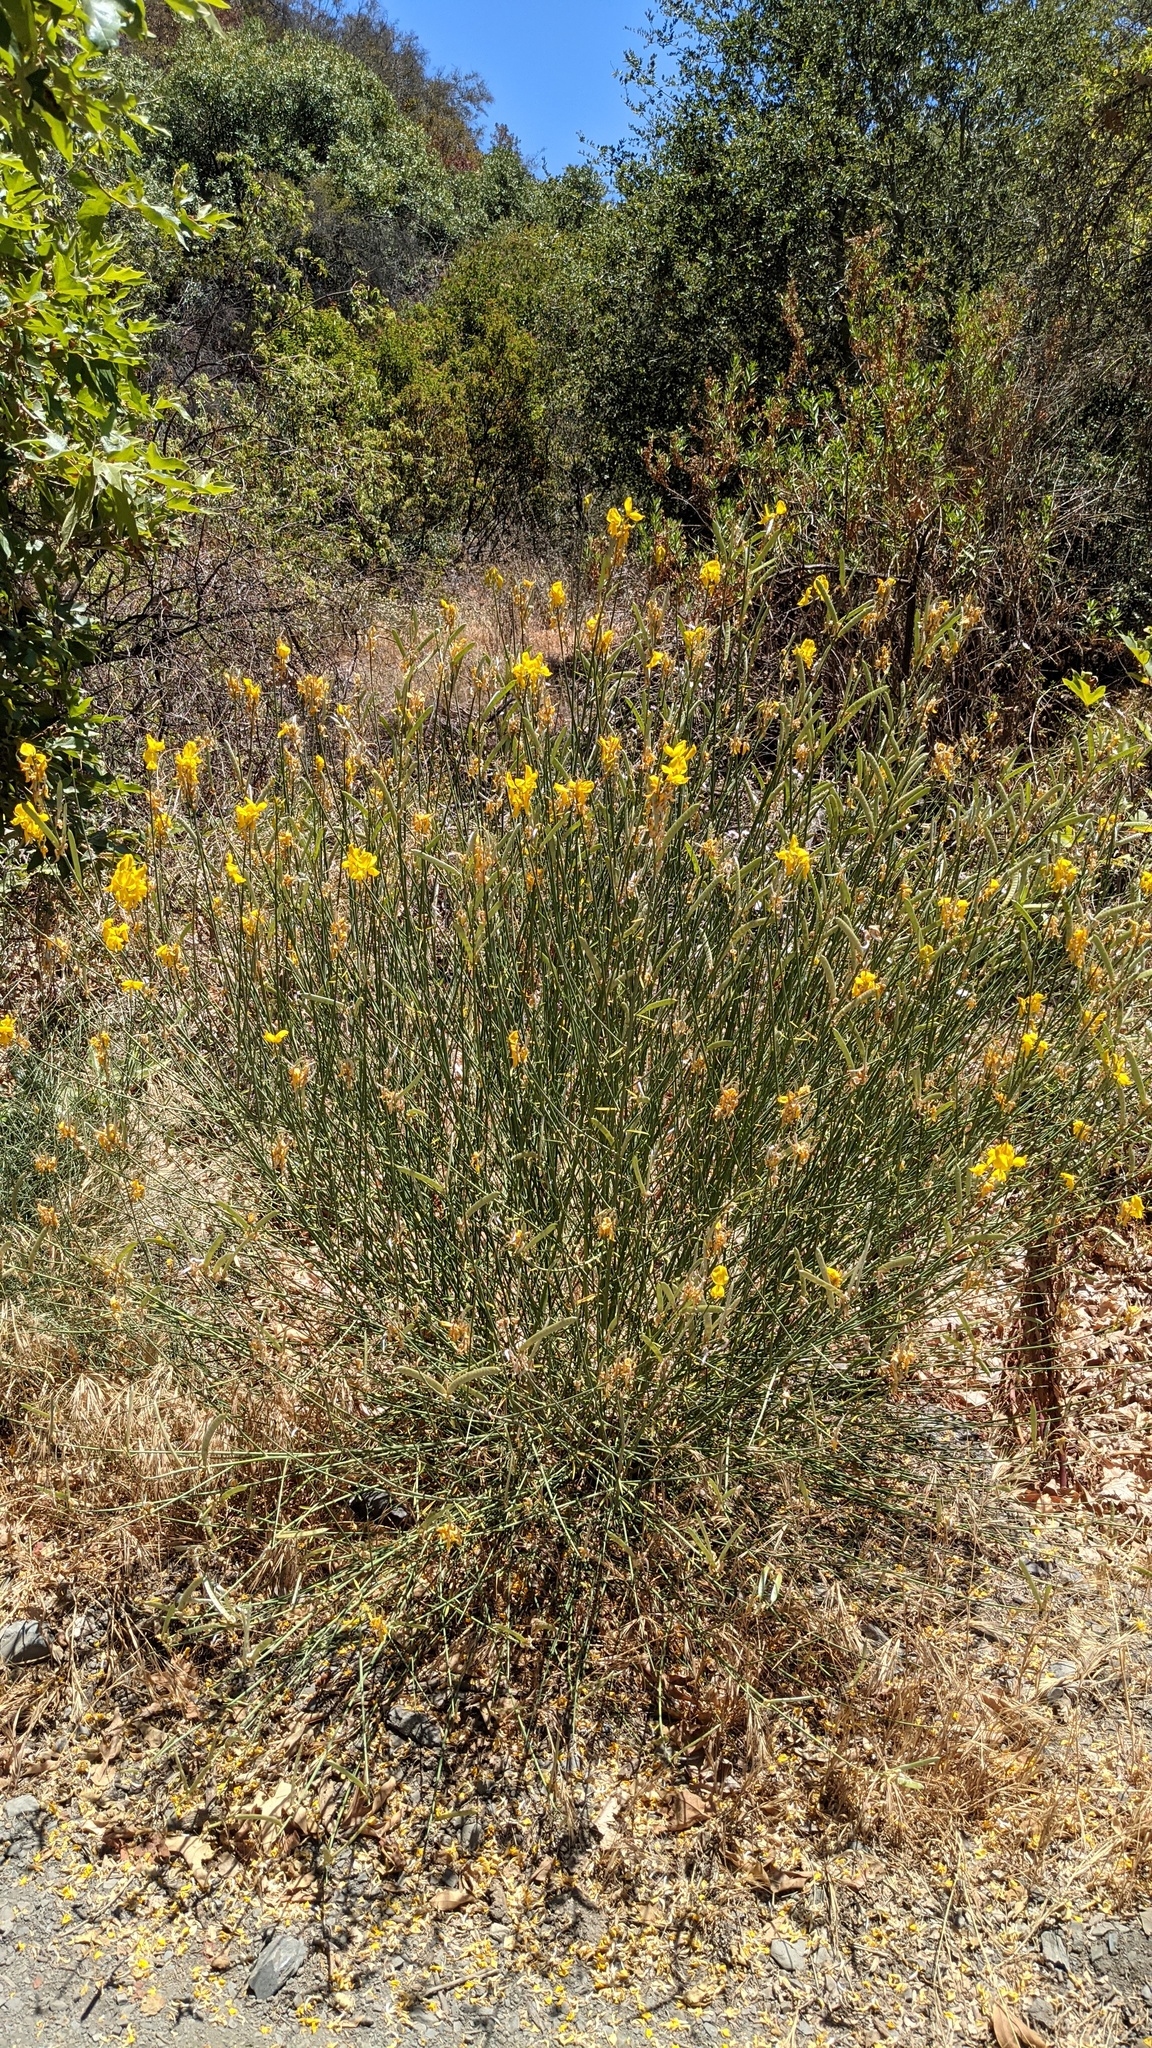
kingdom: Plantae
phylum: Tracheophyta
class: Magnoliopsida
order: Fabales
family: Fabaceae
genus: Spartium
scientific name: Spartium junceum
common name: Spanish broom
